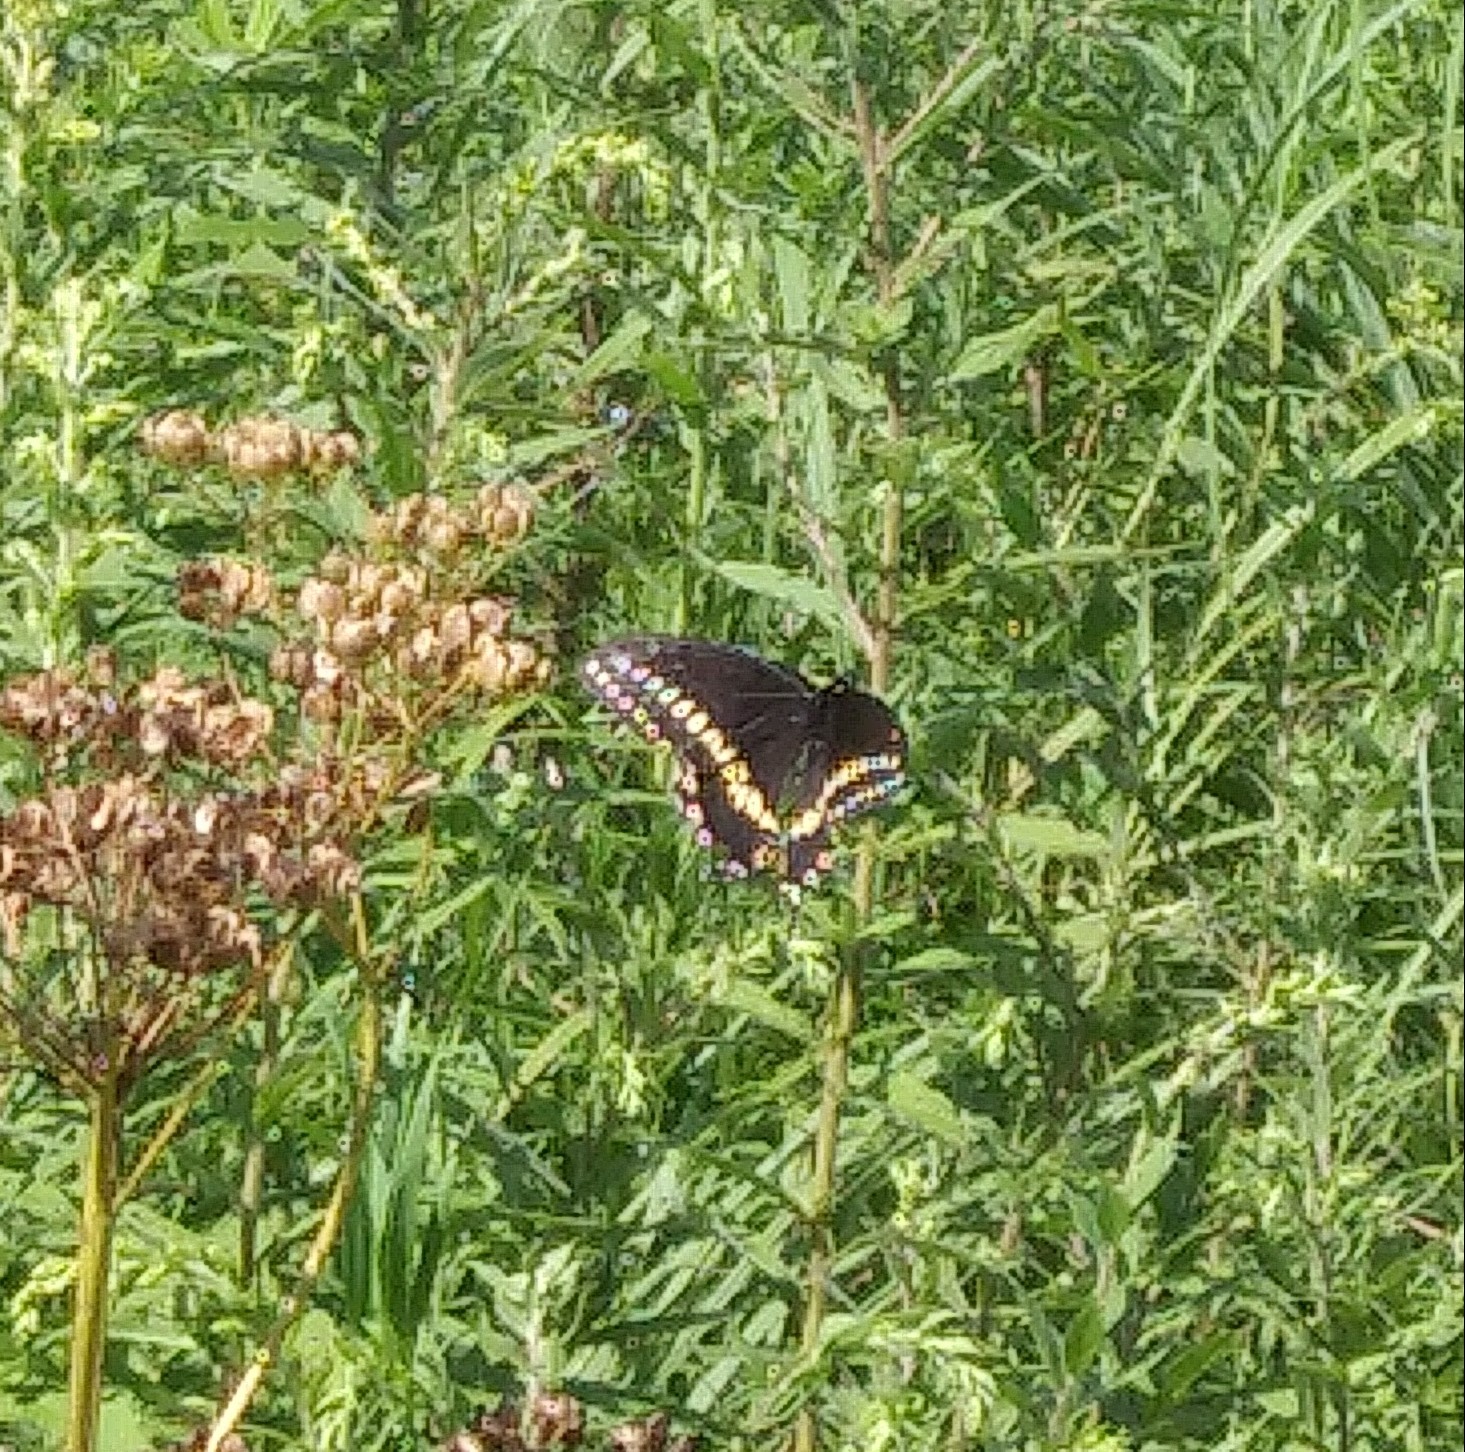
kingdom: Animalia
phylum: Arthropoda
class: Insecta
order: Lepidoptera
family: Papilionidae
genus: Papilio
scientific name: Papilio polyxenes
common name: Black swallowtail
